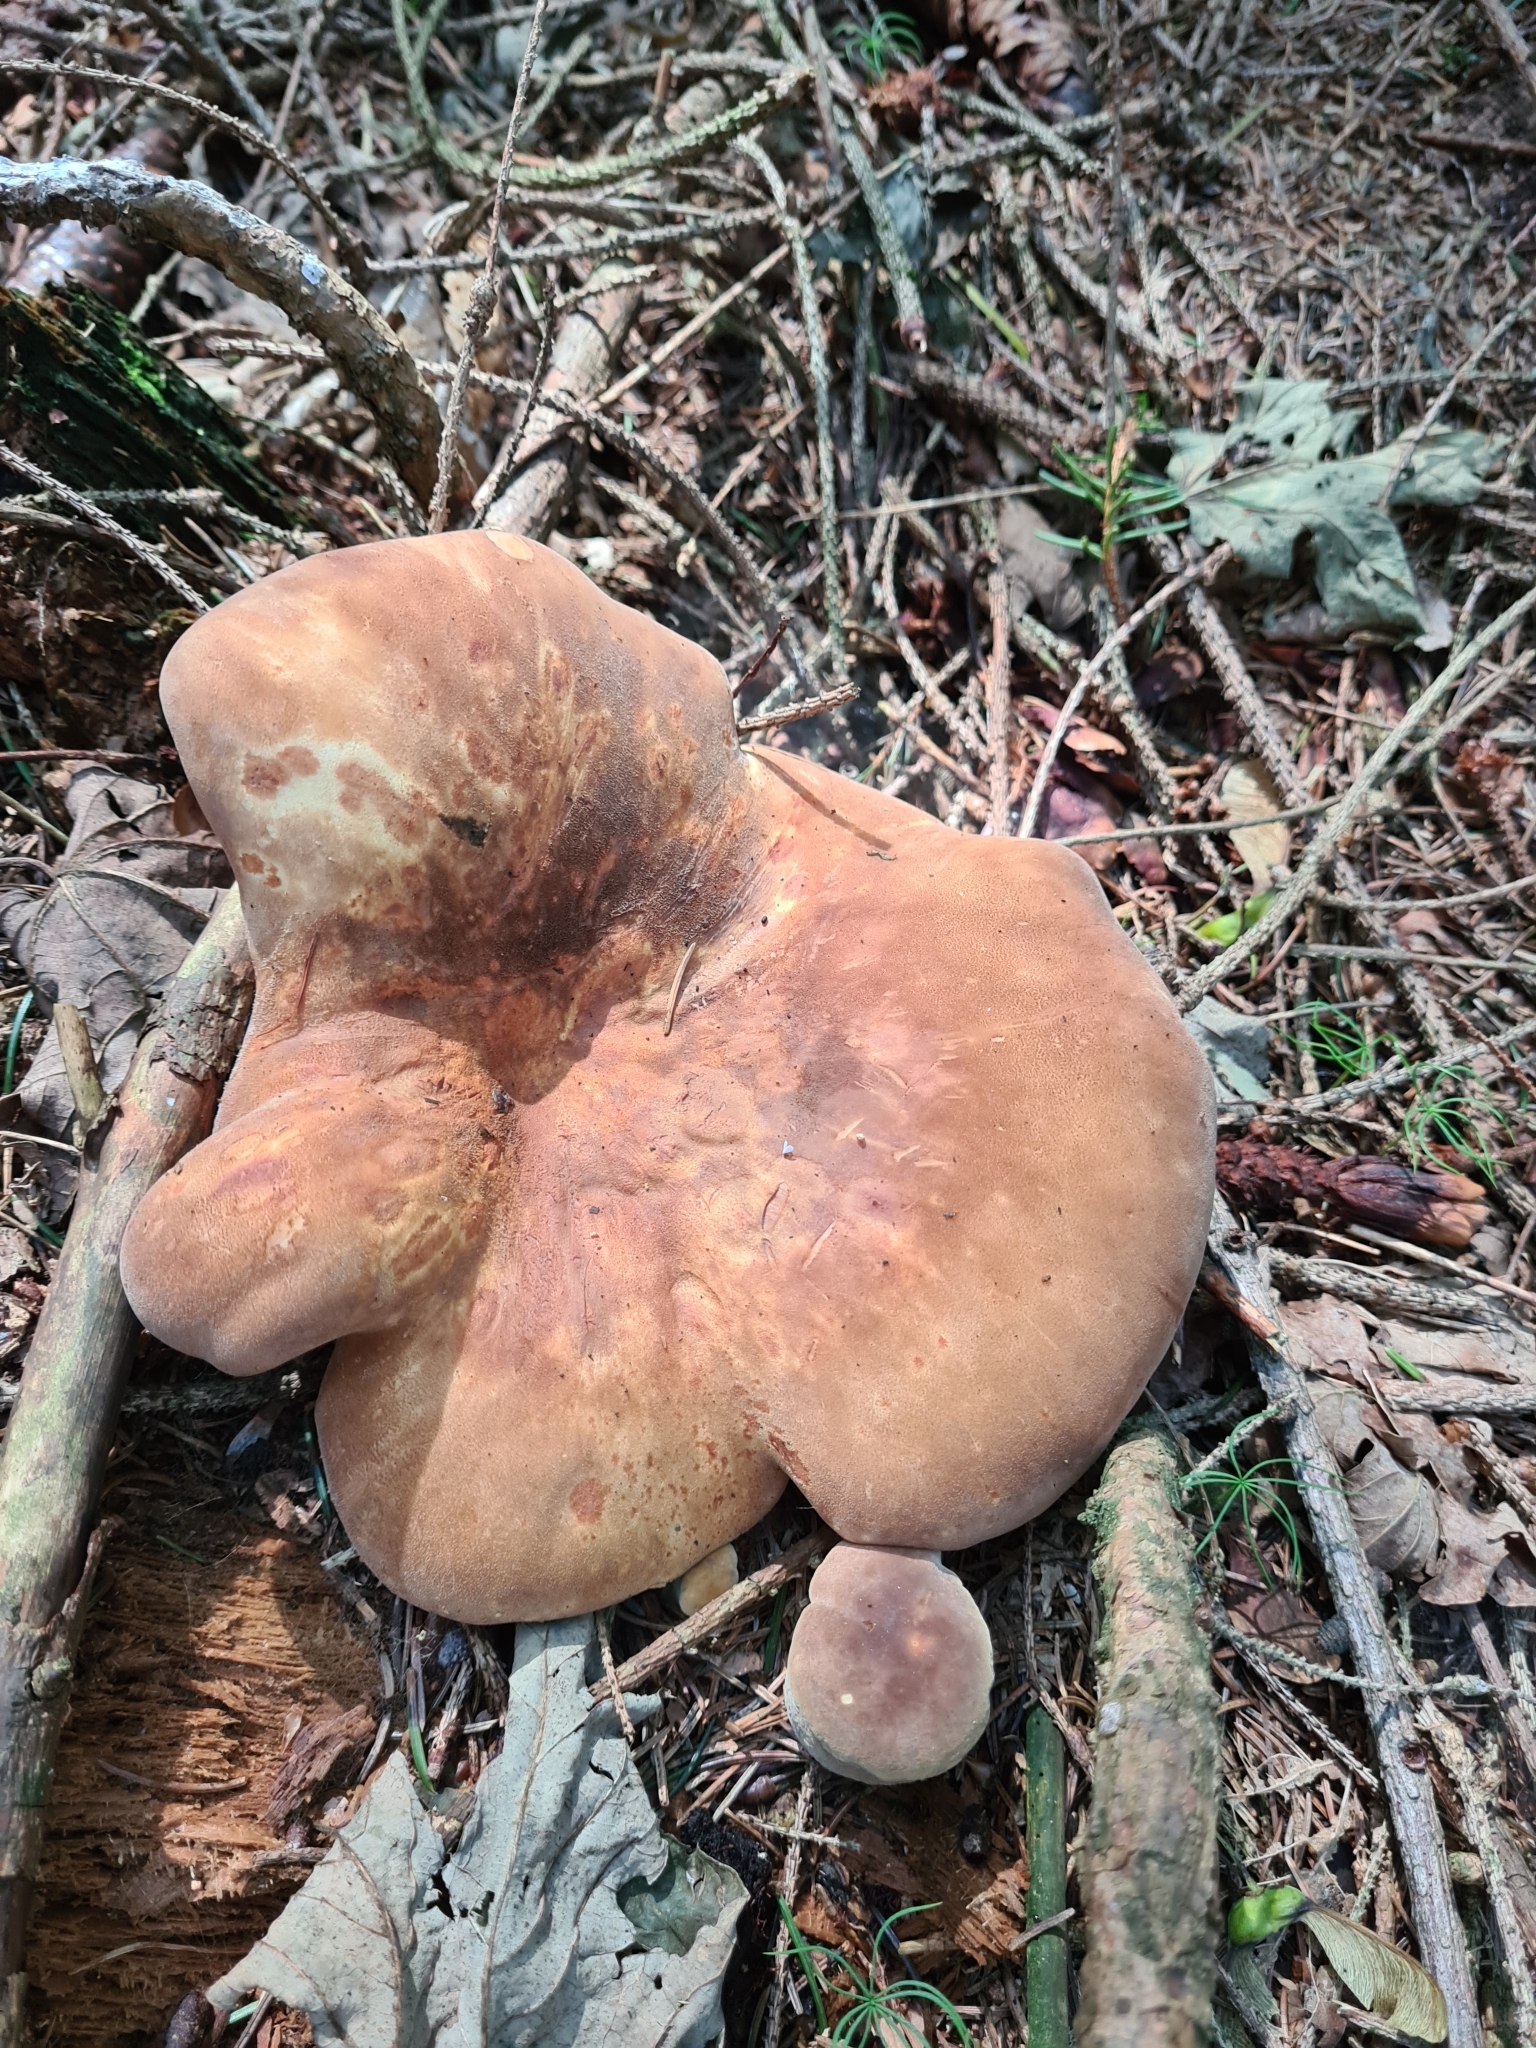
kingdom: Fungi
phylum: Basidiomycota
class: Agaricomycetes
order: Boletales
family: Tapinellaceae
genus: Tapinella
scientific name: Tapinella atrotomentosa
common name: Velvet rollrim
